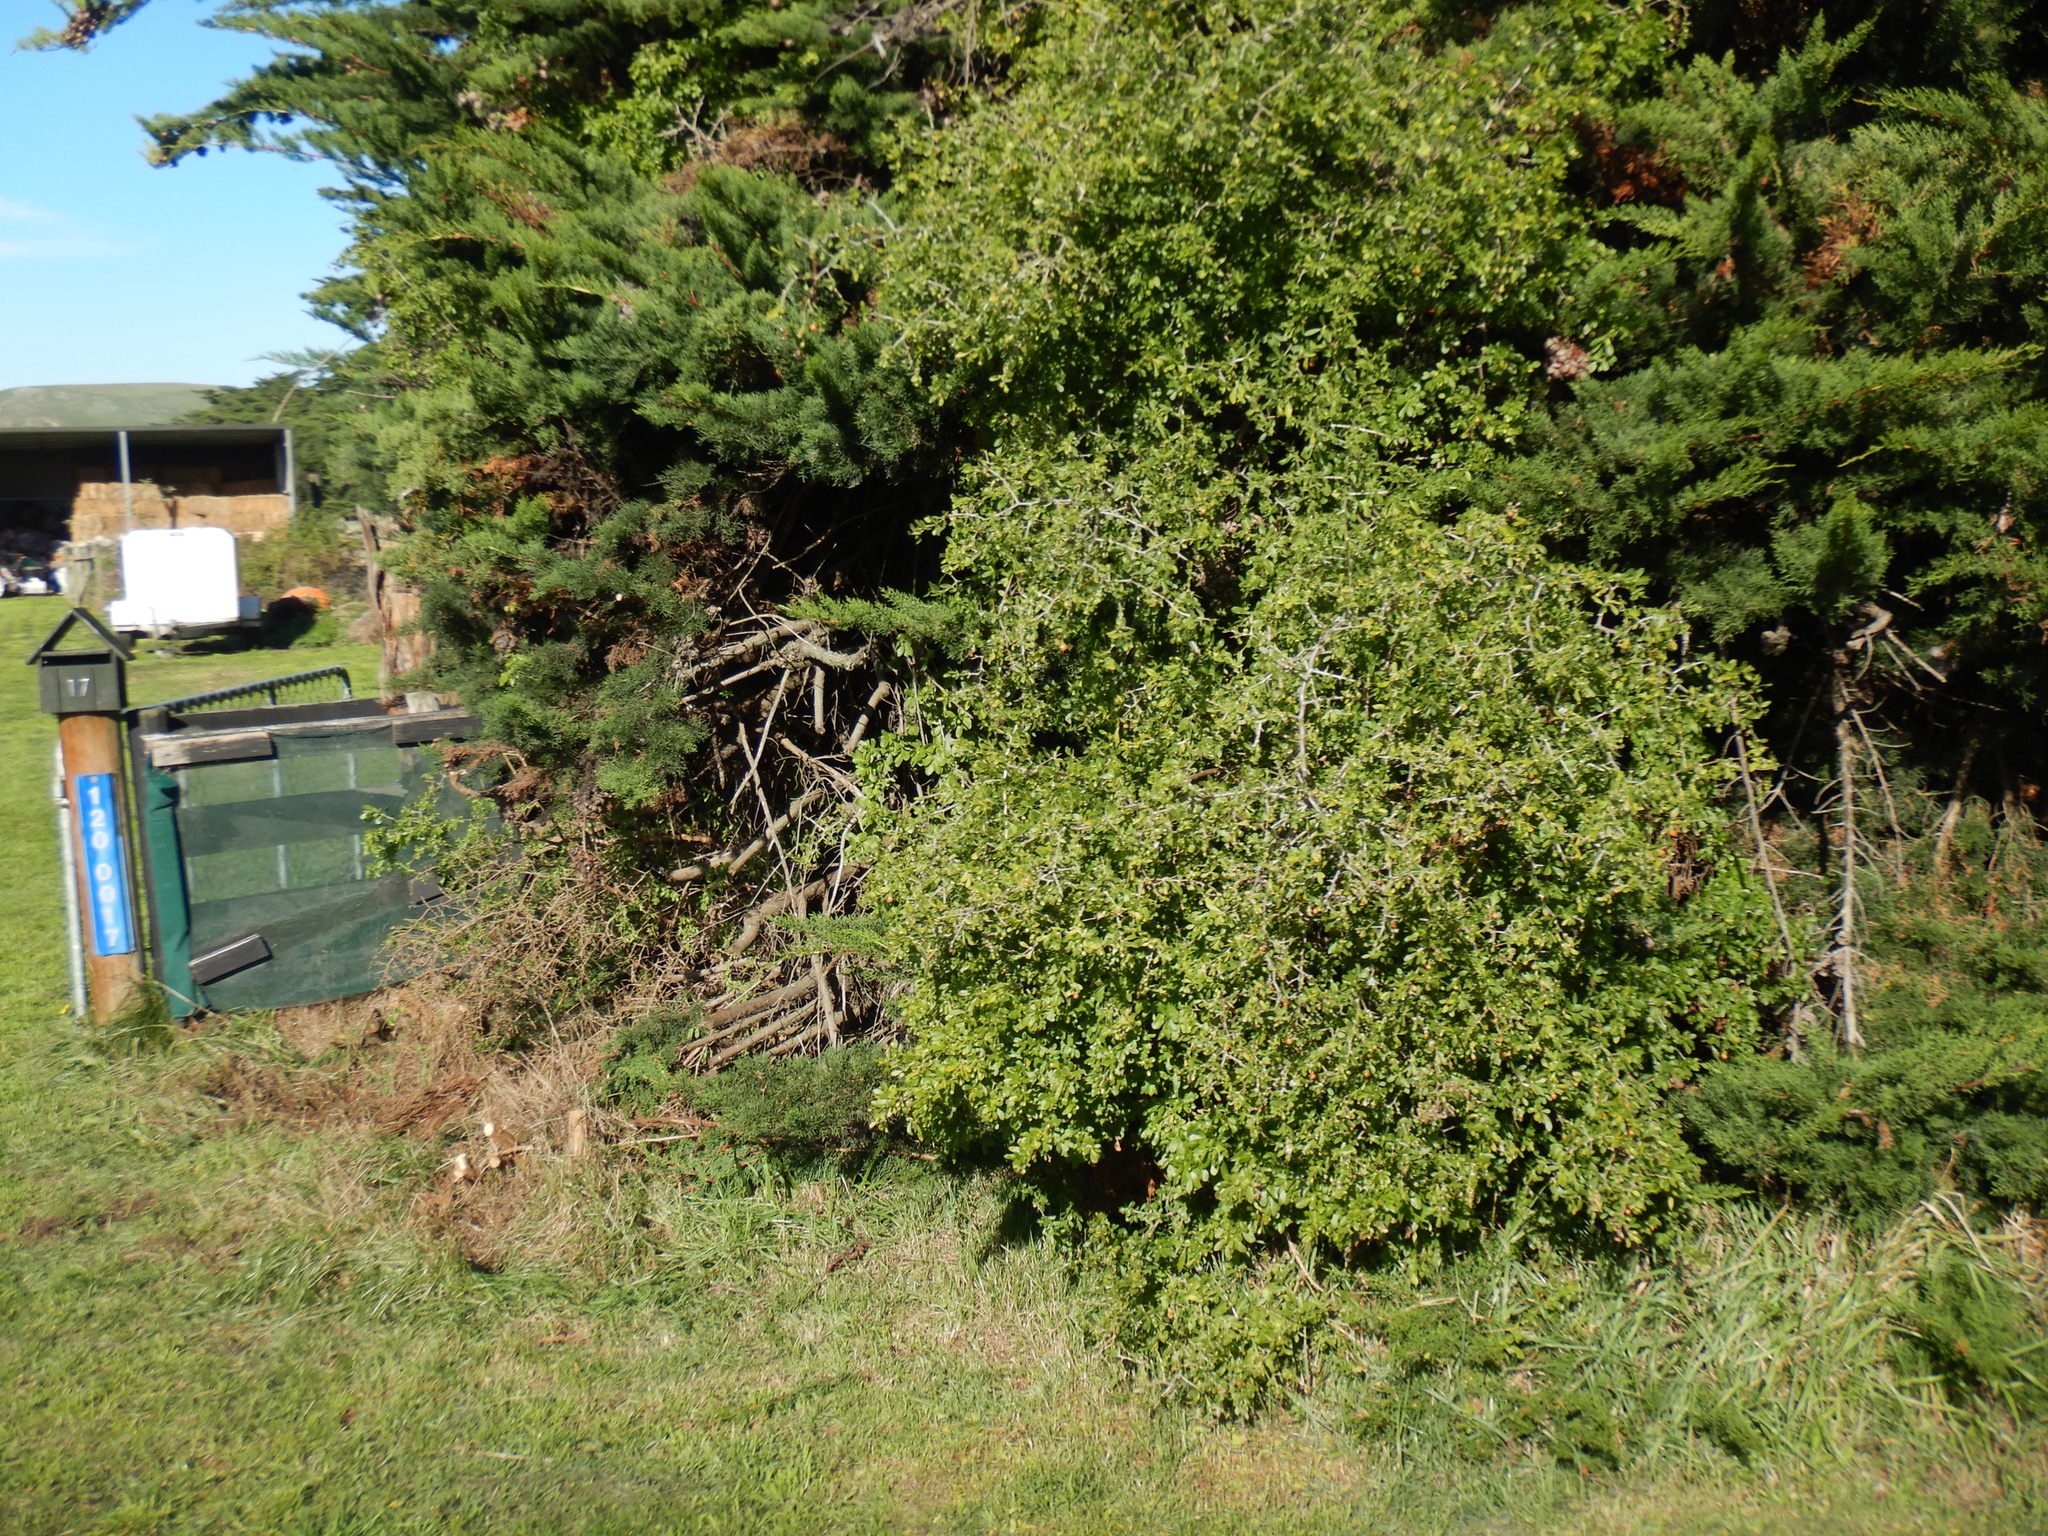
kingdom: Plantae
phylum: Tracheophyta
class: Magnoliopsida
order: Solanales
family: Solanaceae
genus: Lycium
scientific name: Lycium ferocissimum
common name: African boxthorn
